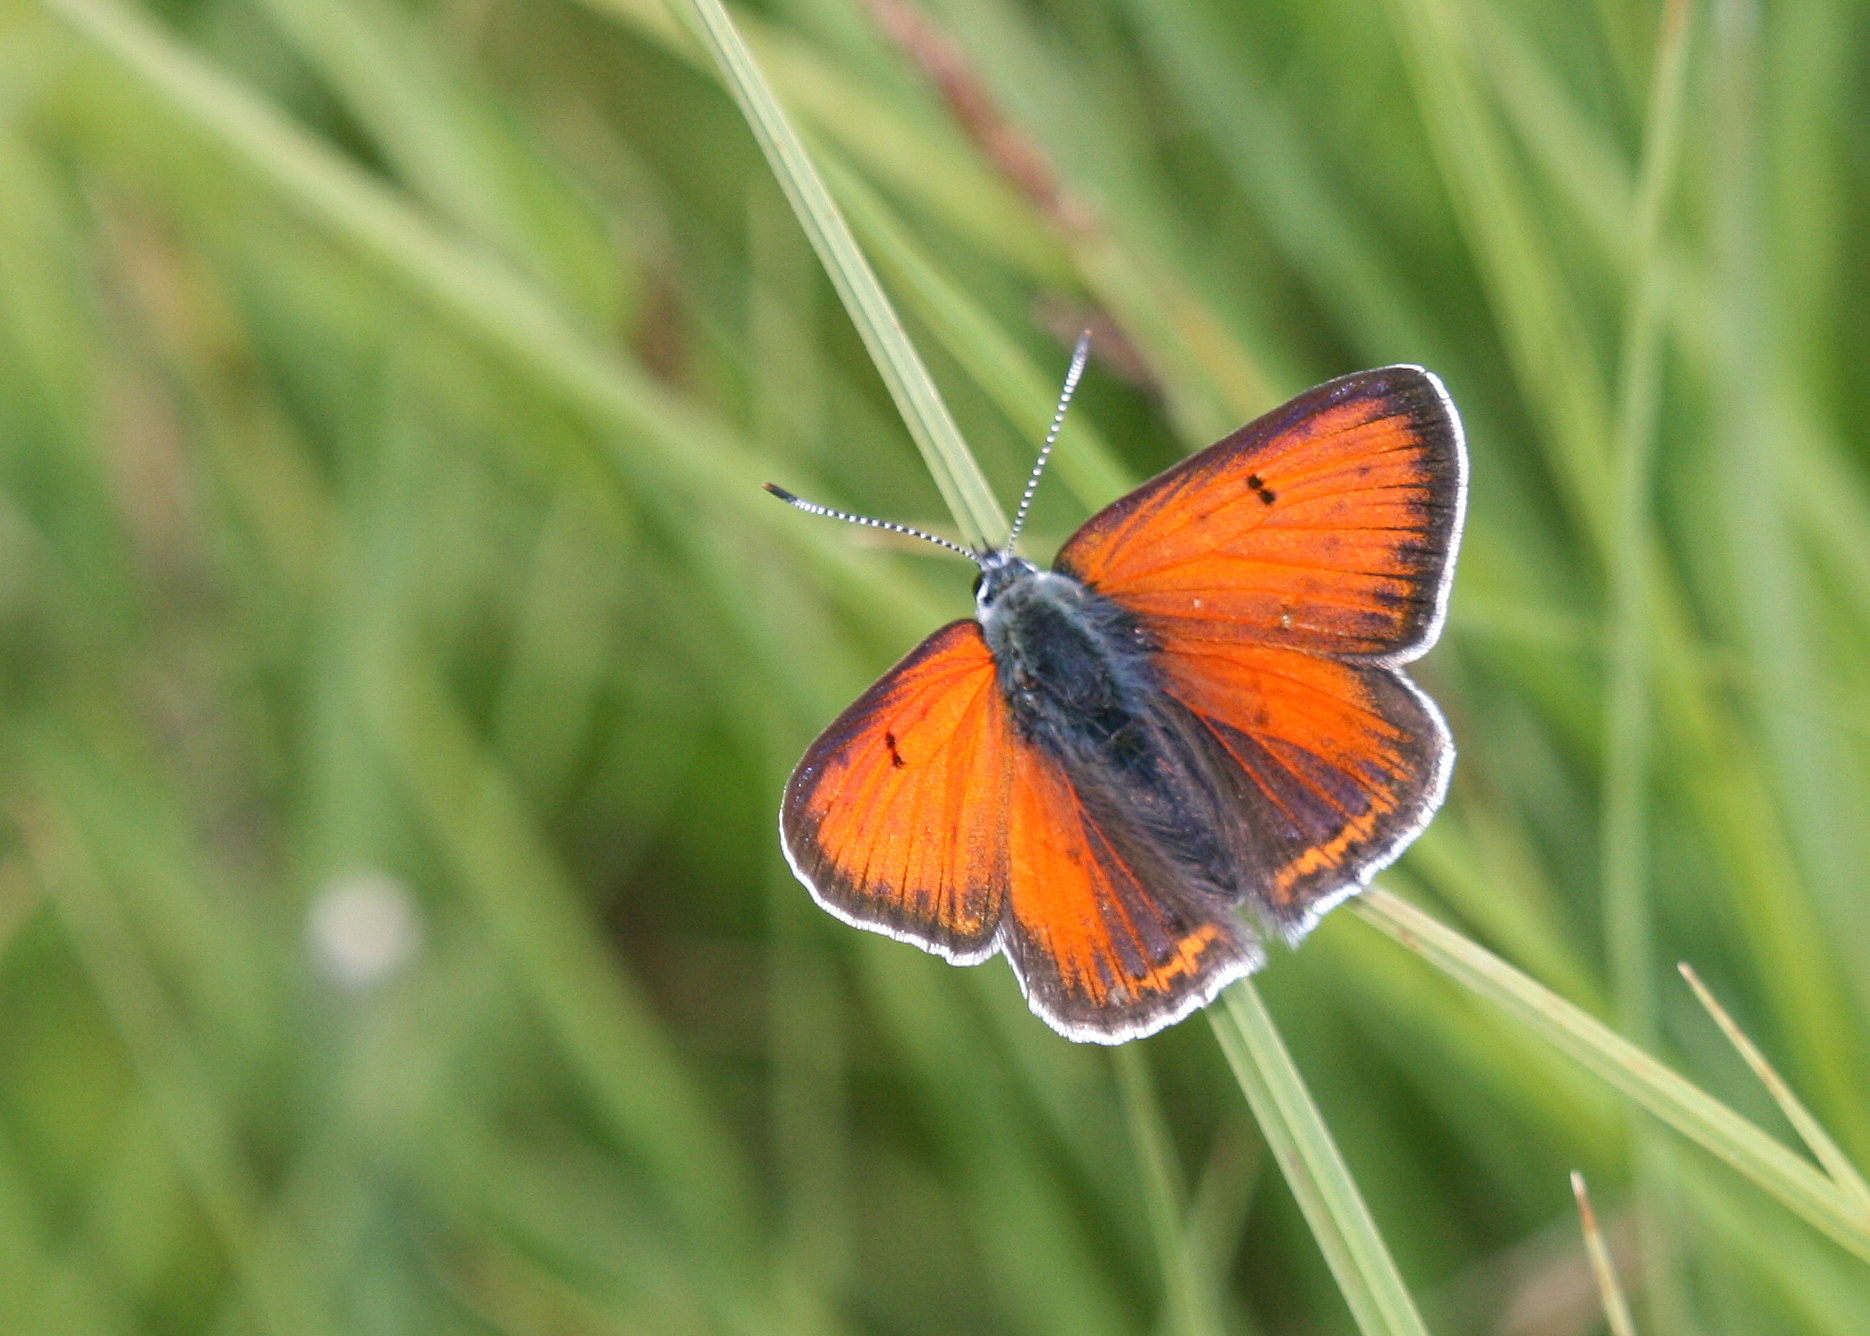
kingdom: Animalia
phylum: Arthropoda
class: Insecta
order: Lepidoptera
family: Lycaenidae
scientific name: Lycaenidae
